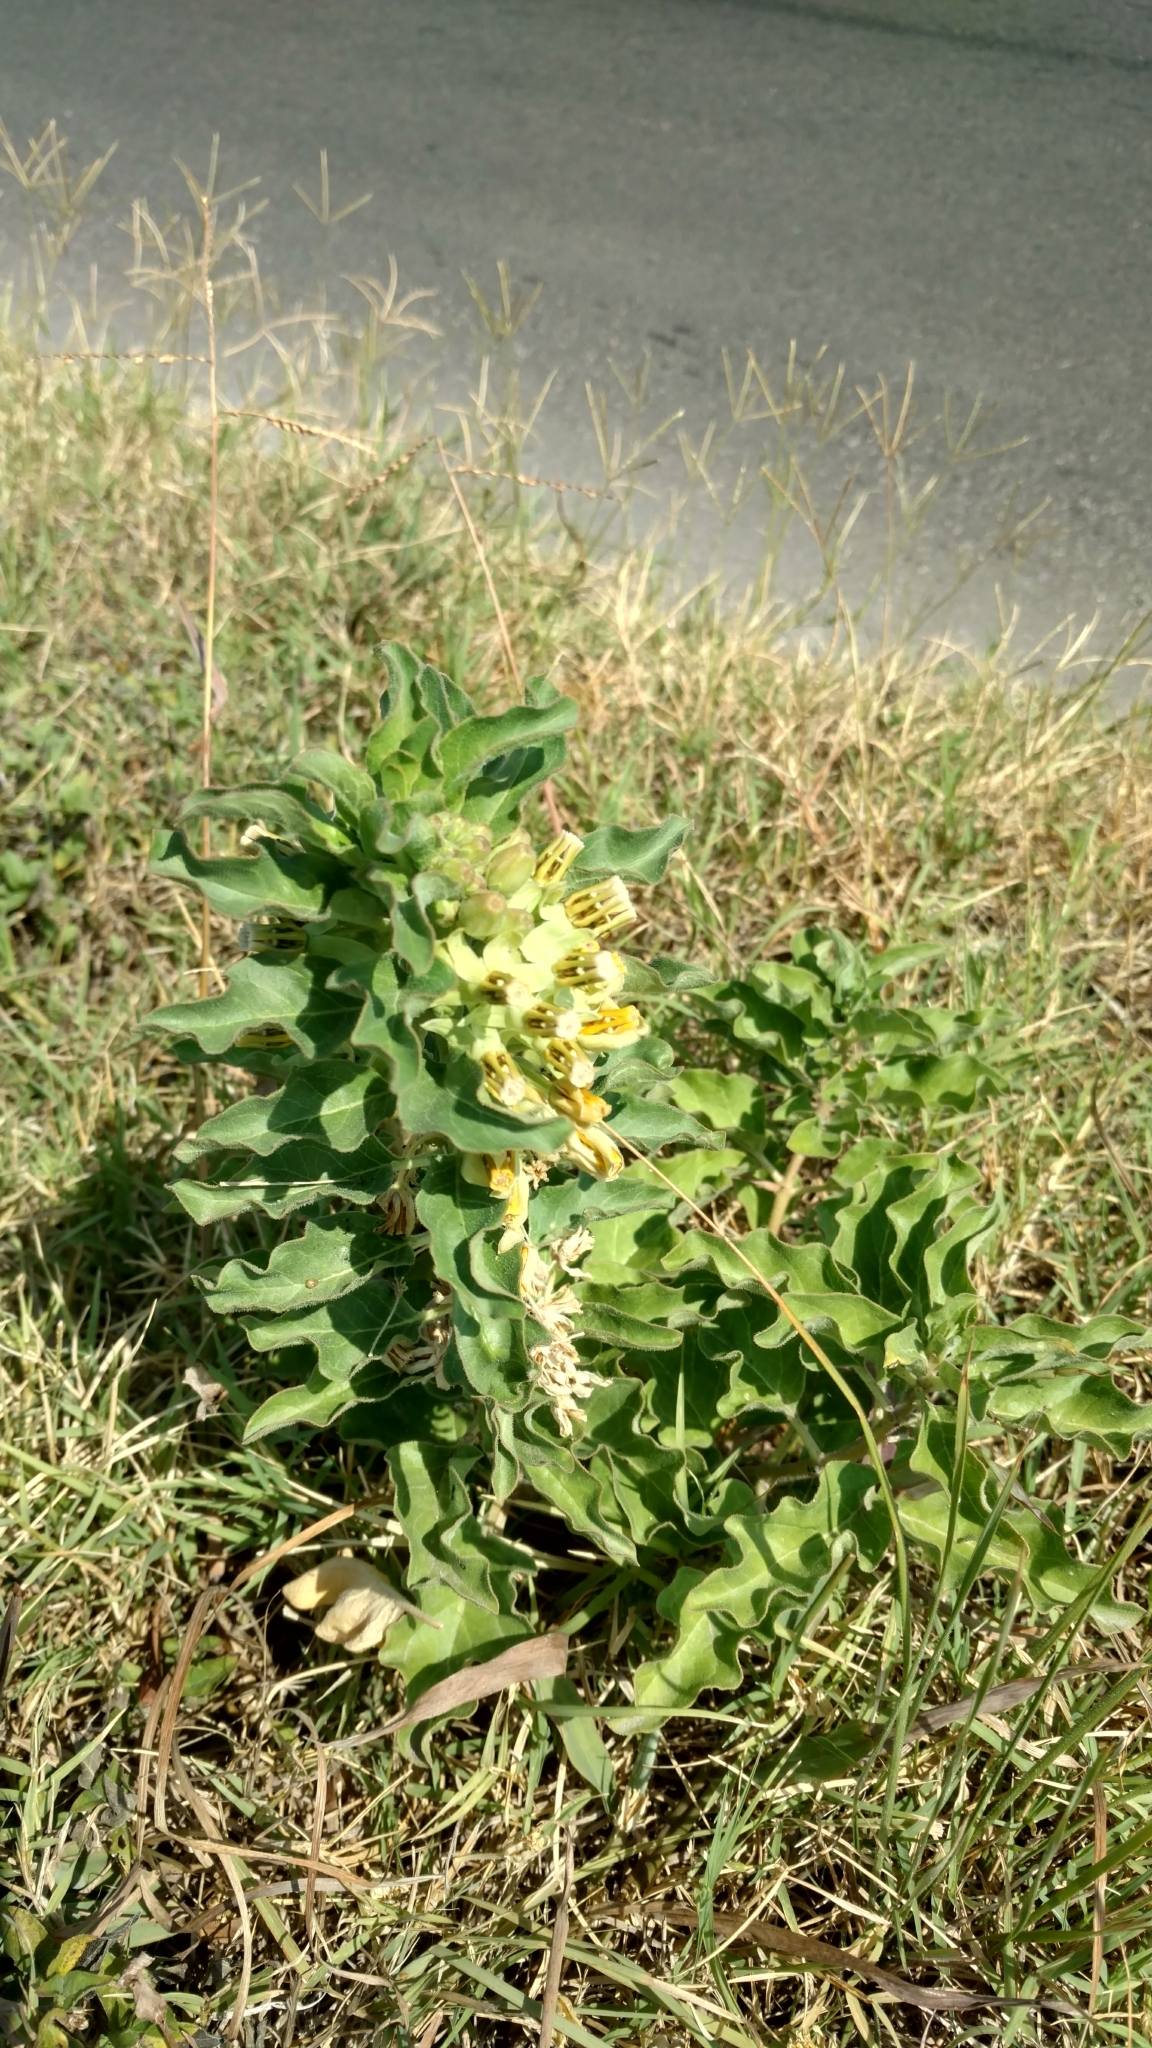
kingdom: Plantae
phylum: Tracheophyta
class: Magnoliopsida
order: Gentianales
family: Apocynaceae
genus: Asclepias
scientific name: Asclepias oenotheroides
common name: Zizotes milkweed
